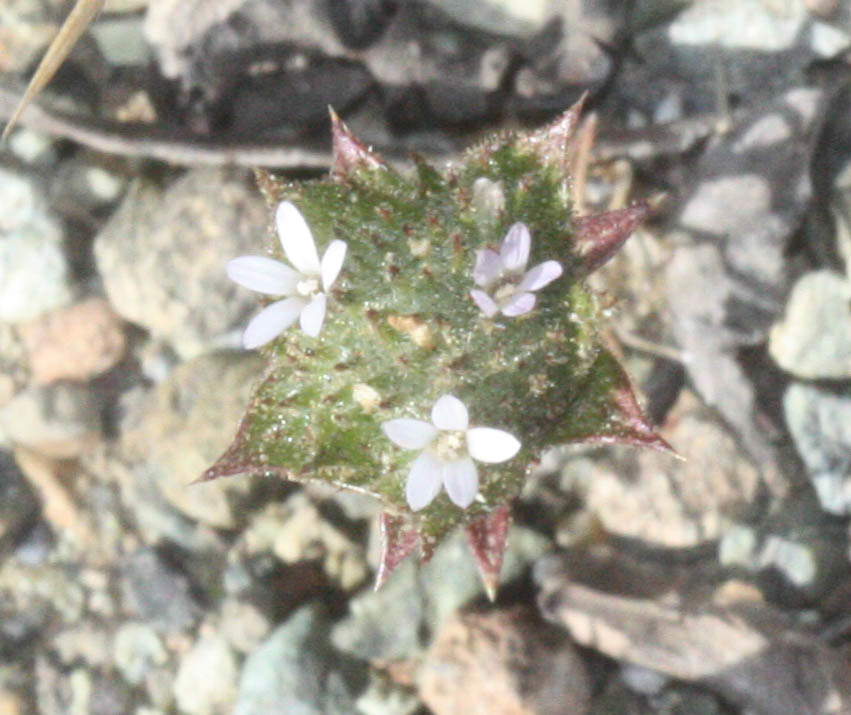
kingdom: Plantae
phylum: Tracheophyta
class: Magnoliopsida
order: Ericales
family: Polemoniaceae
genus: Navarretia
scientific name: Navarretia rosulata
